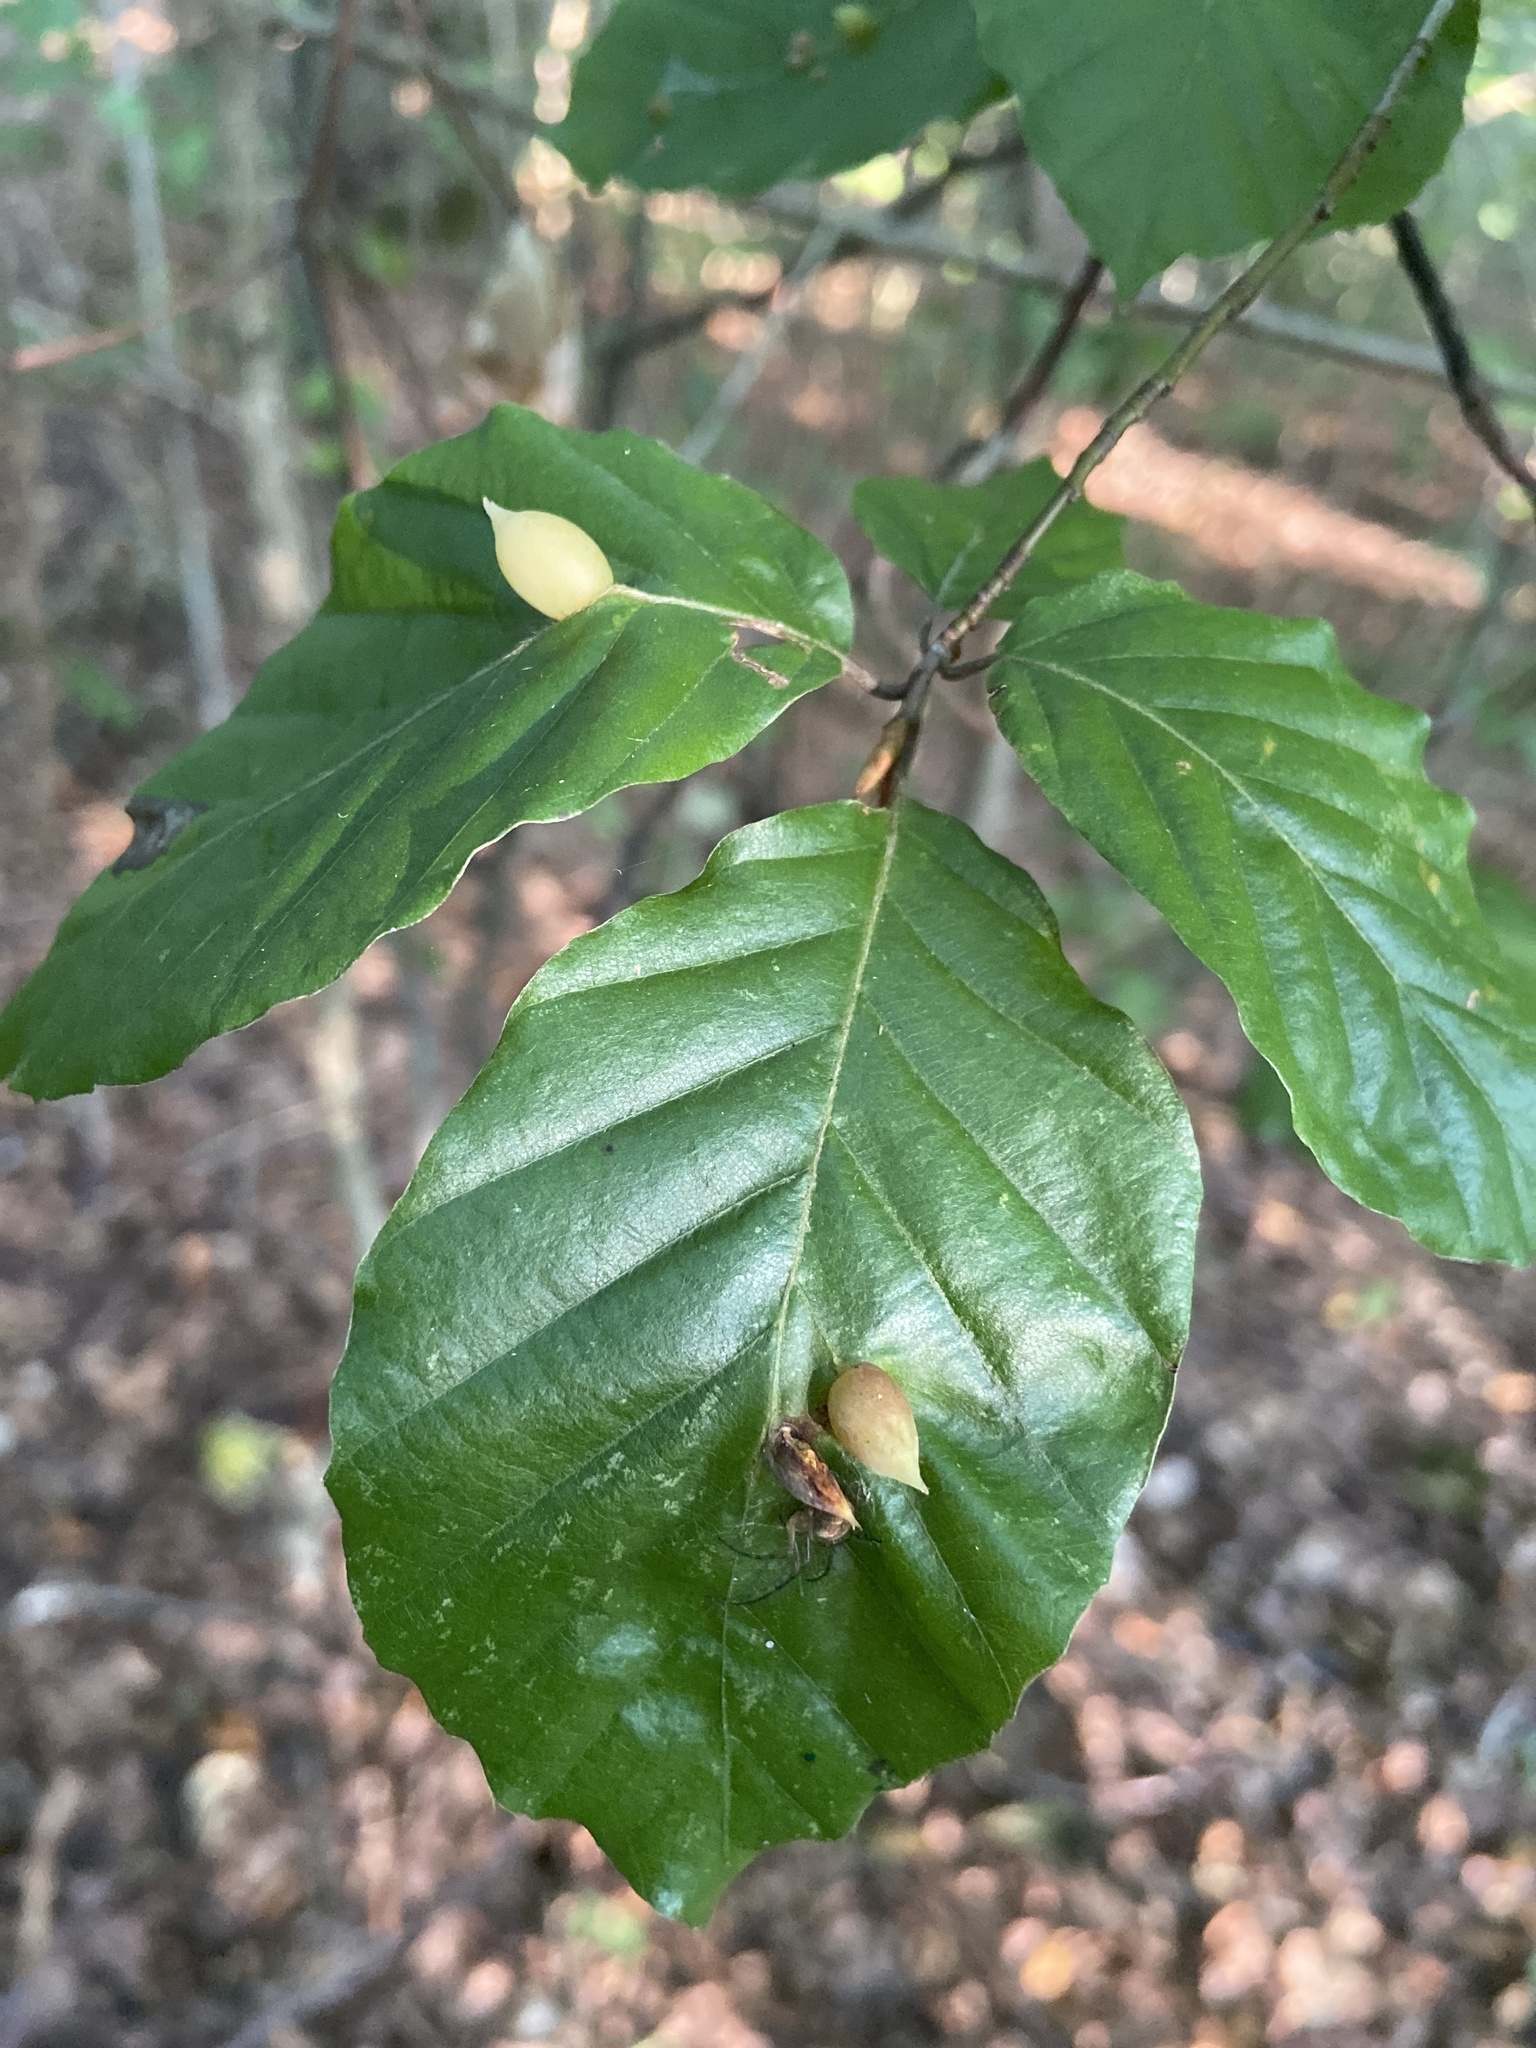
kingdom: Animalia
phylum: Arthropoda
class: Insecta
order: Diptera
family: Cecidomyiidae
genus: Mikiola
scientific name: Mikiola fagi
